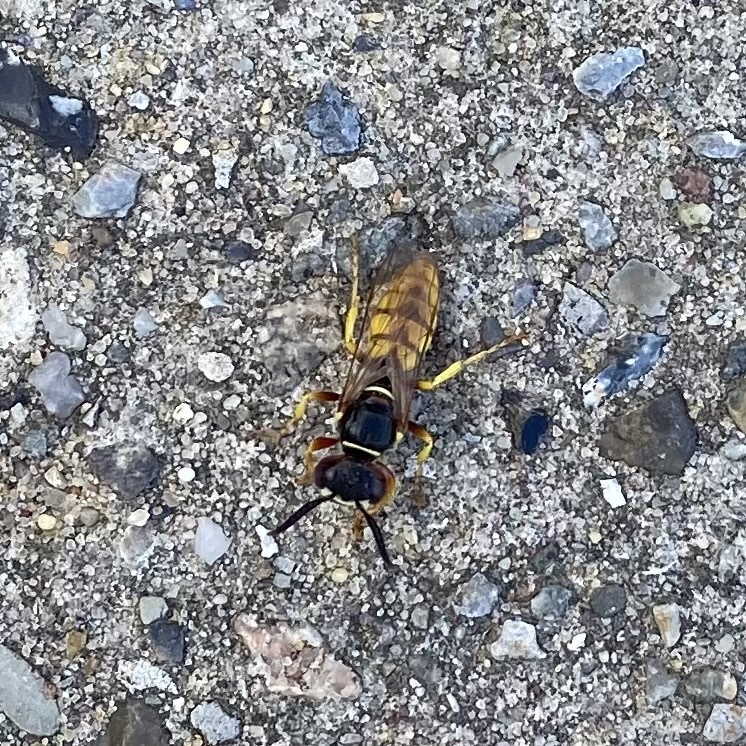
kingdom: Animalia
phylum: Arthropoda
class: Insecta
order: Hymenoptera
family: Crabronidae
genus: Philanthus
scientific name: Philanthus triangulum
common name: Bee wolf
